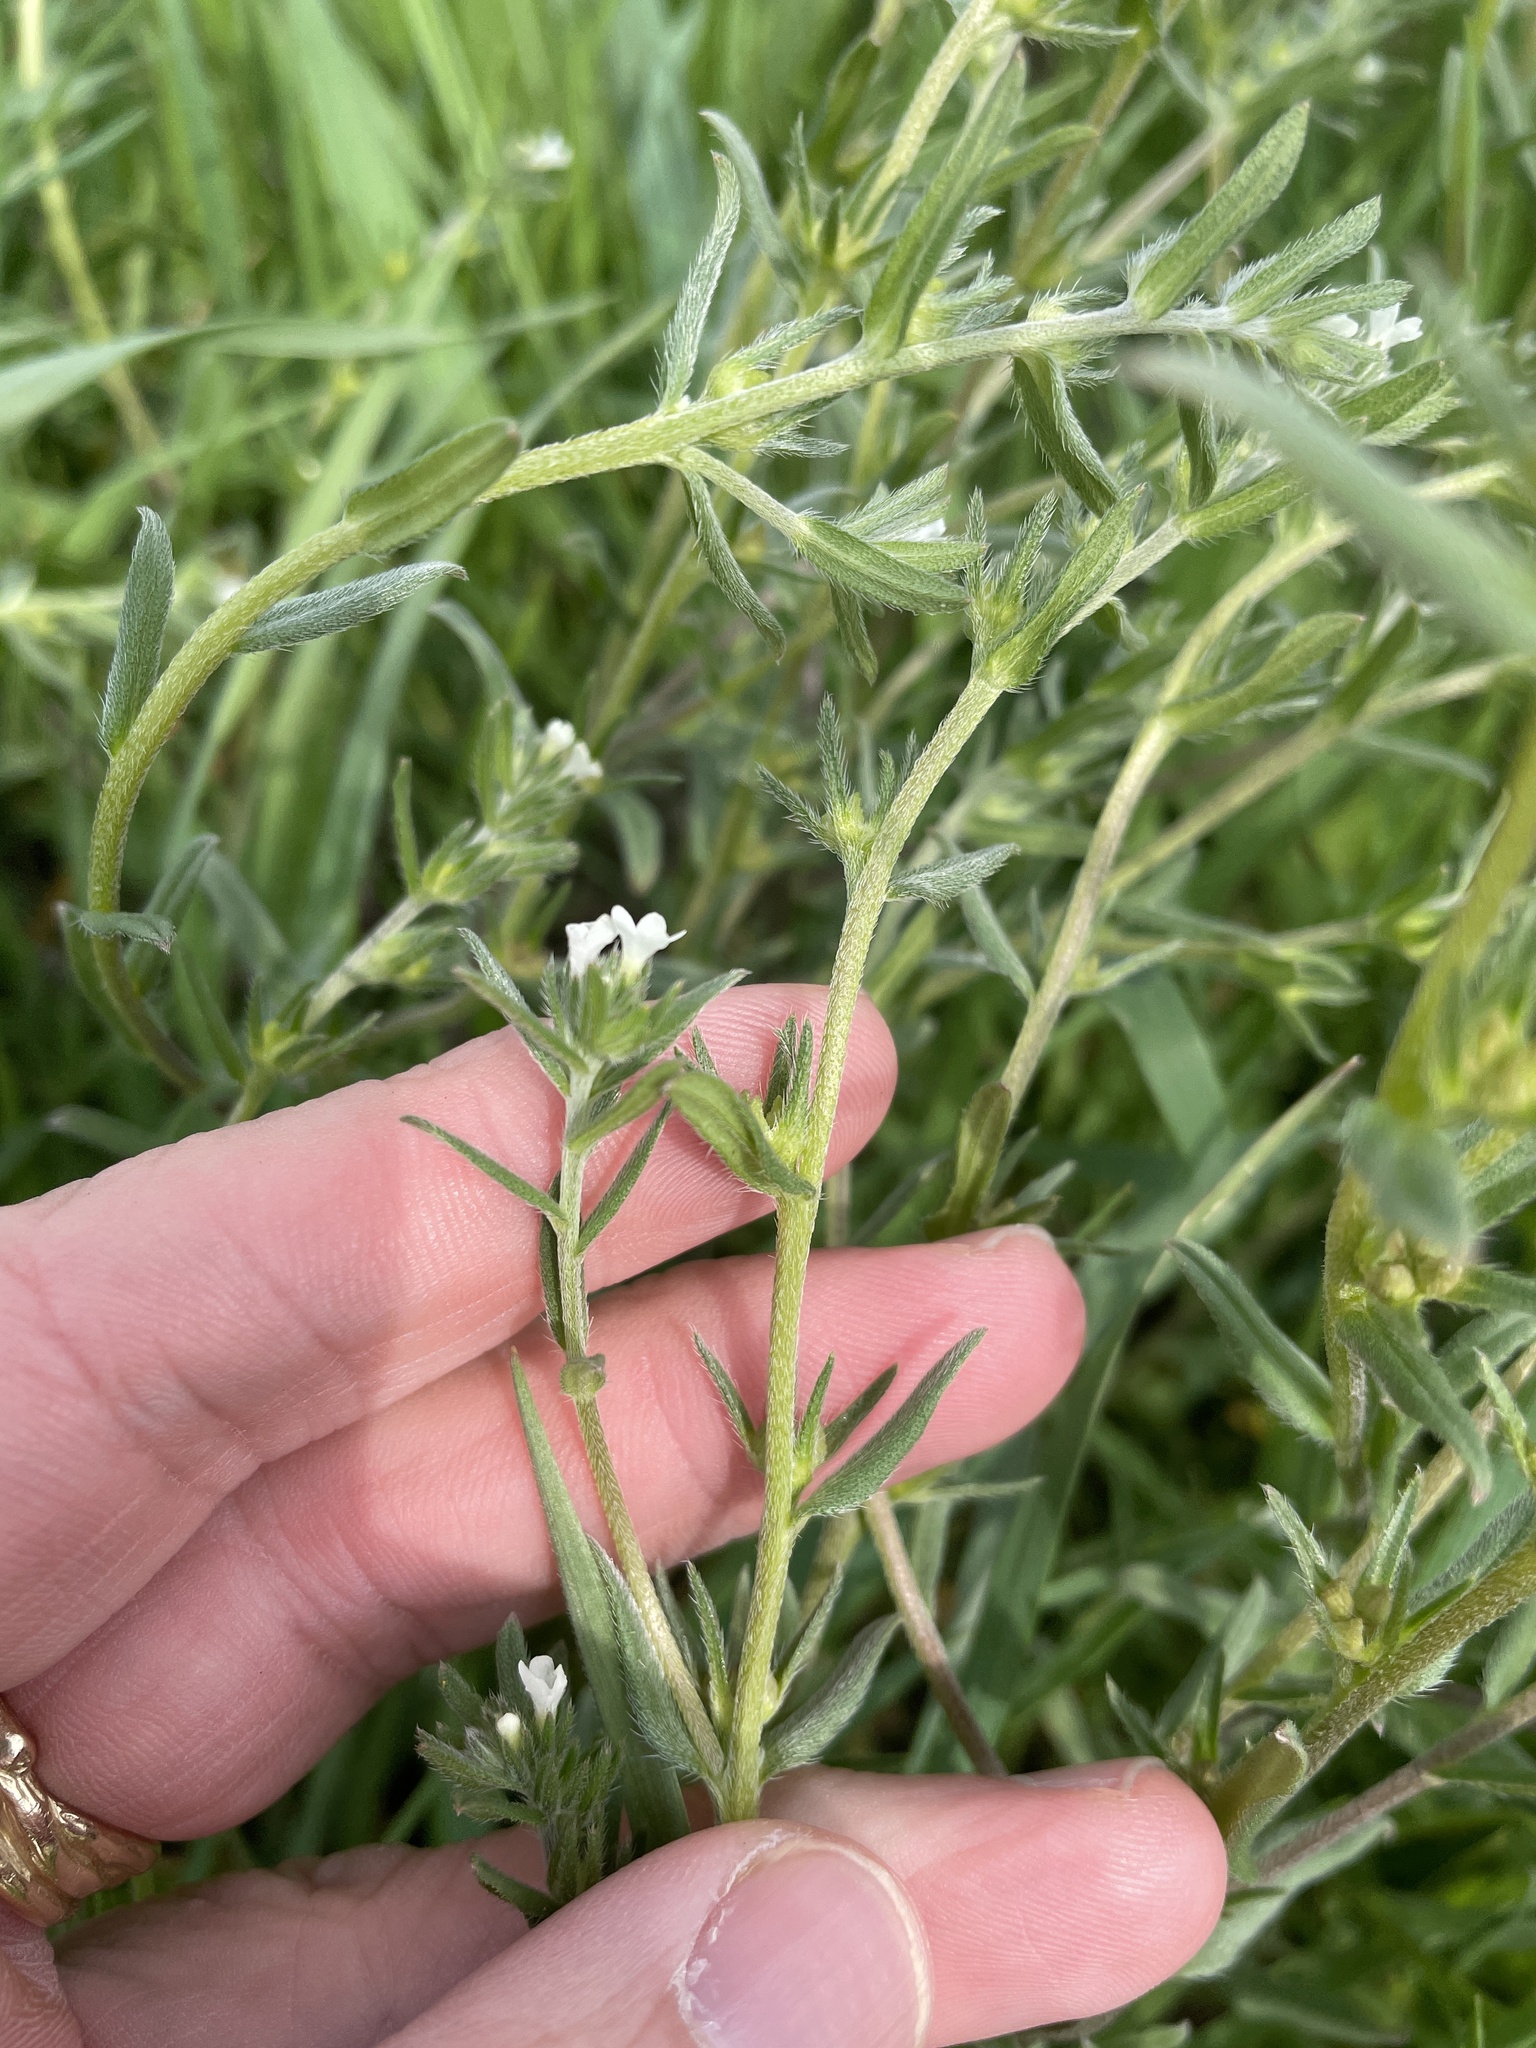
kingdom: Plantae
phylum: Tracheophyta
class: Magnoliopsida
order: Boraginales
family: Boraginaceae
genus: Buglossoides
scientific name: Buglossoides arvensis
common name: Corn gromwell
